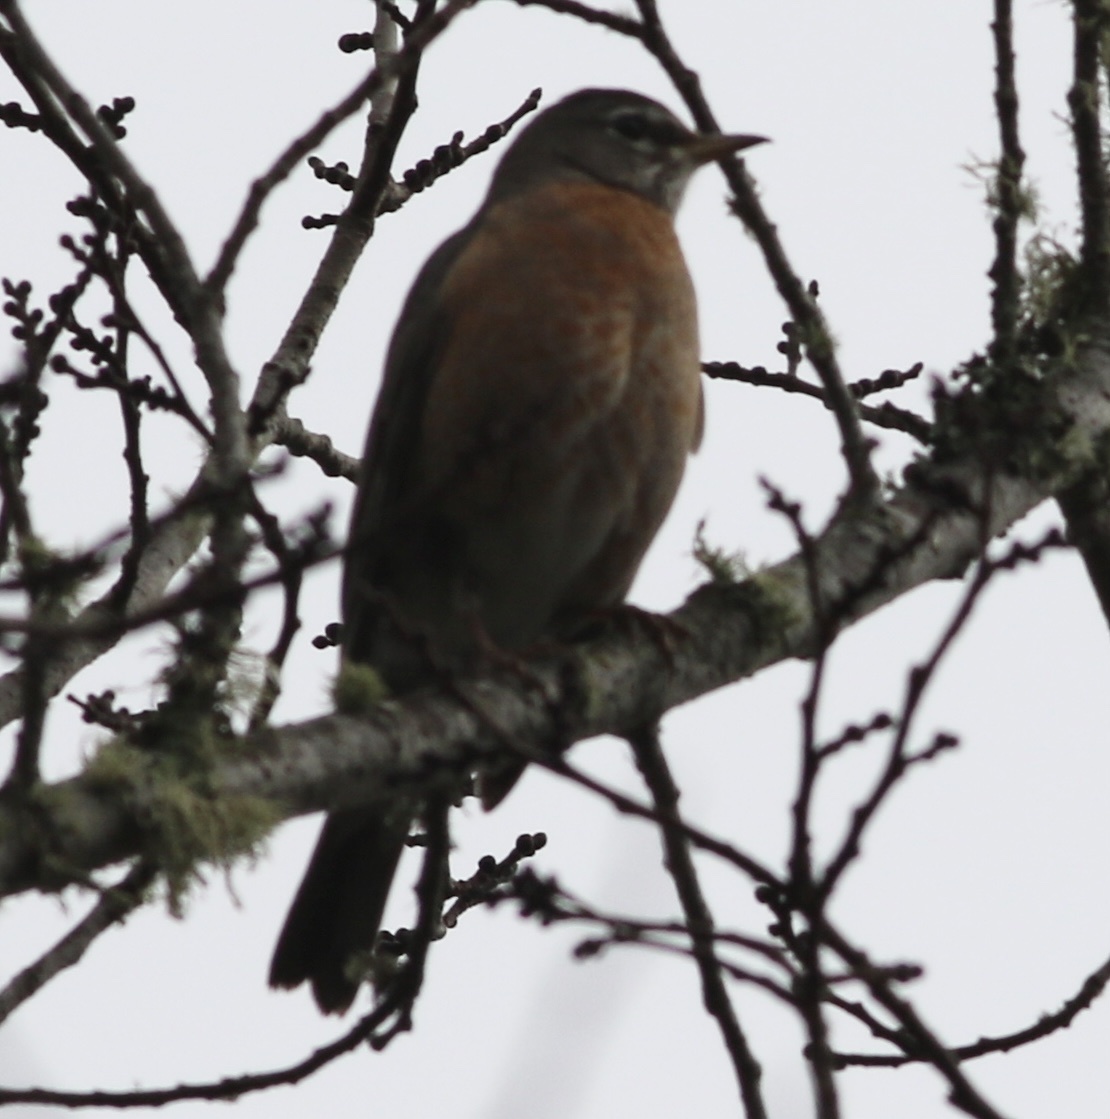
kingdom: Animalia
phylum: Chordata
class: Aves
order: Passeriformes
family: Turdidae
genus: Turdus
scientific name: Turdus migratorius
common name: American robin
